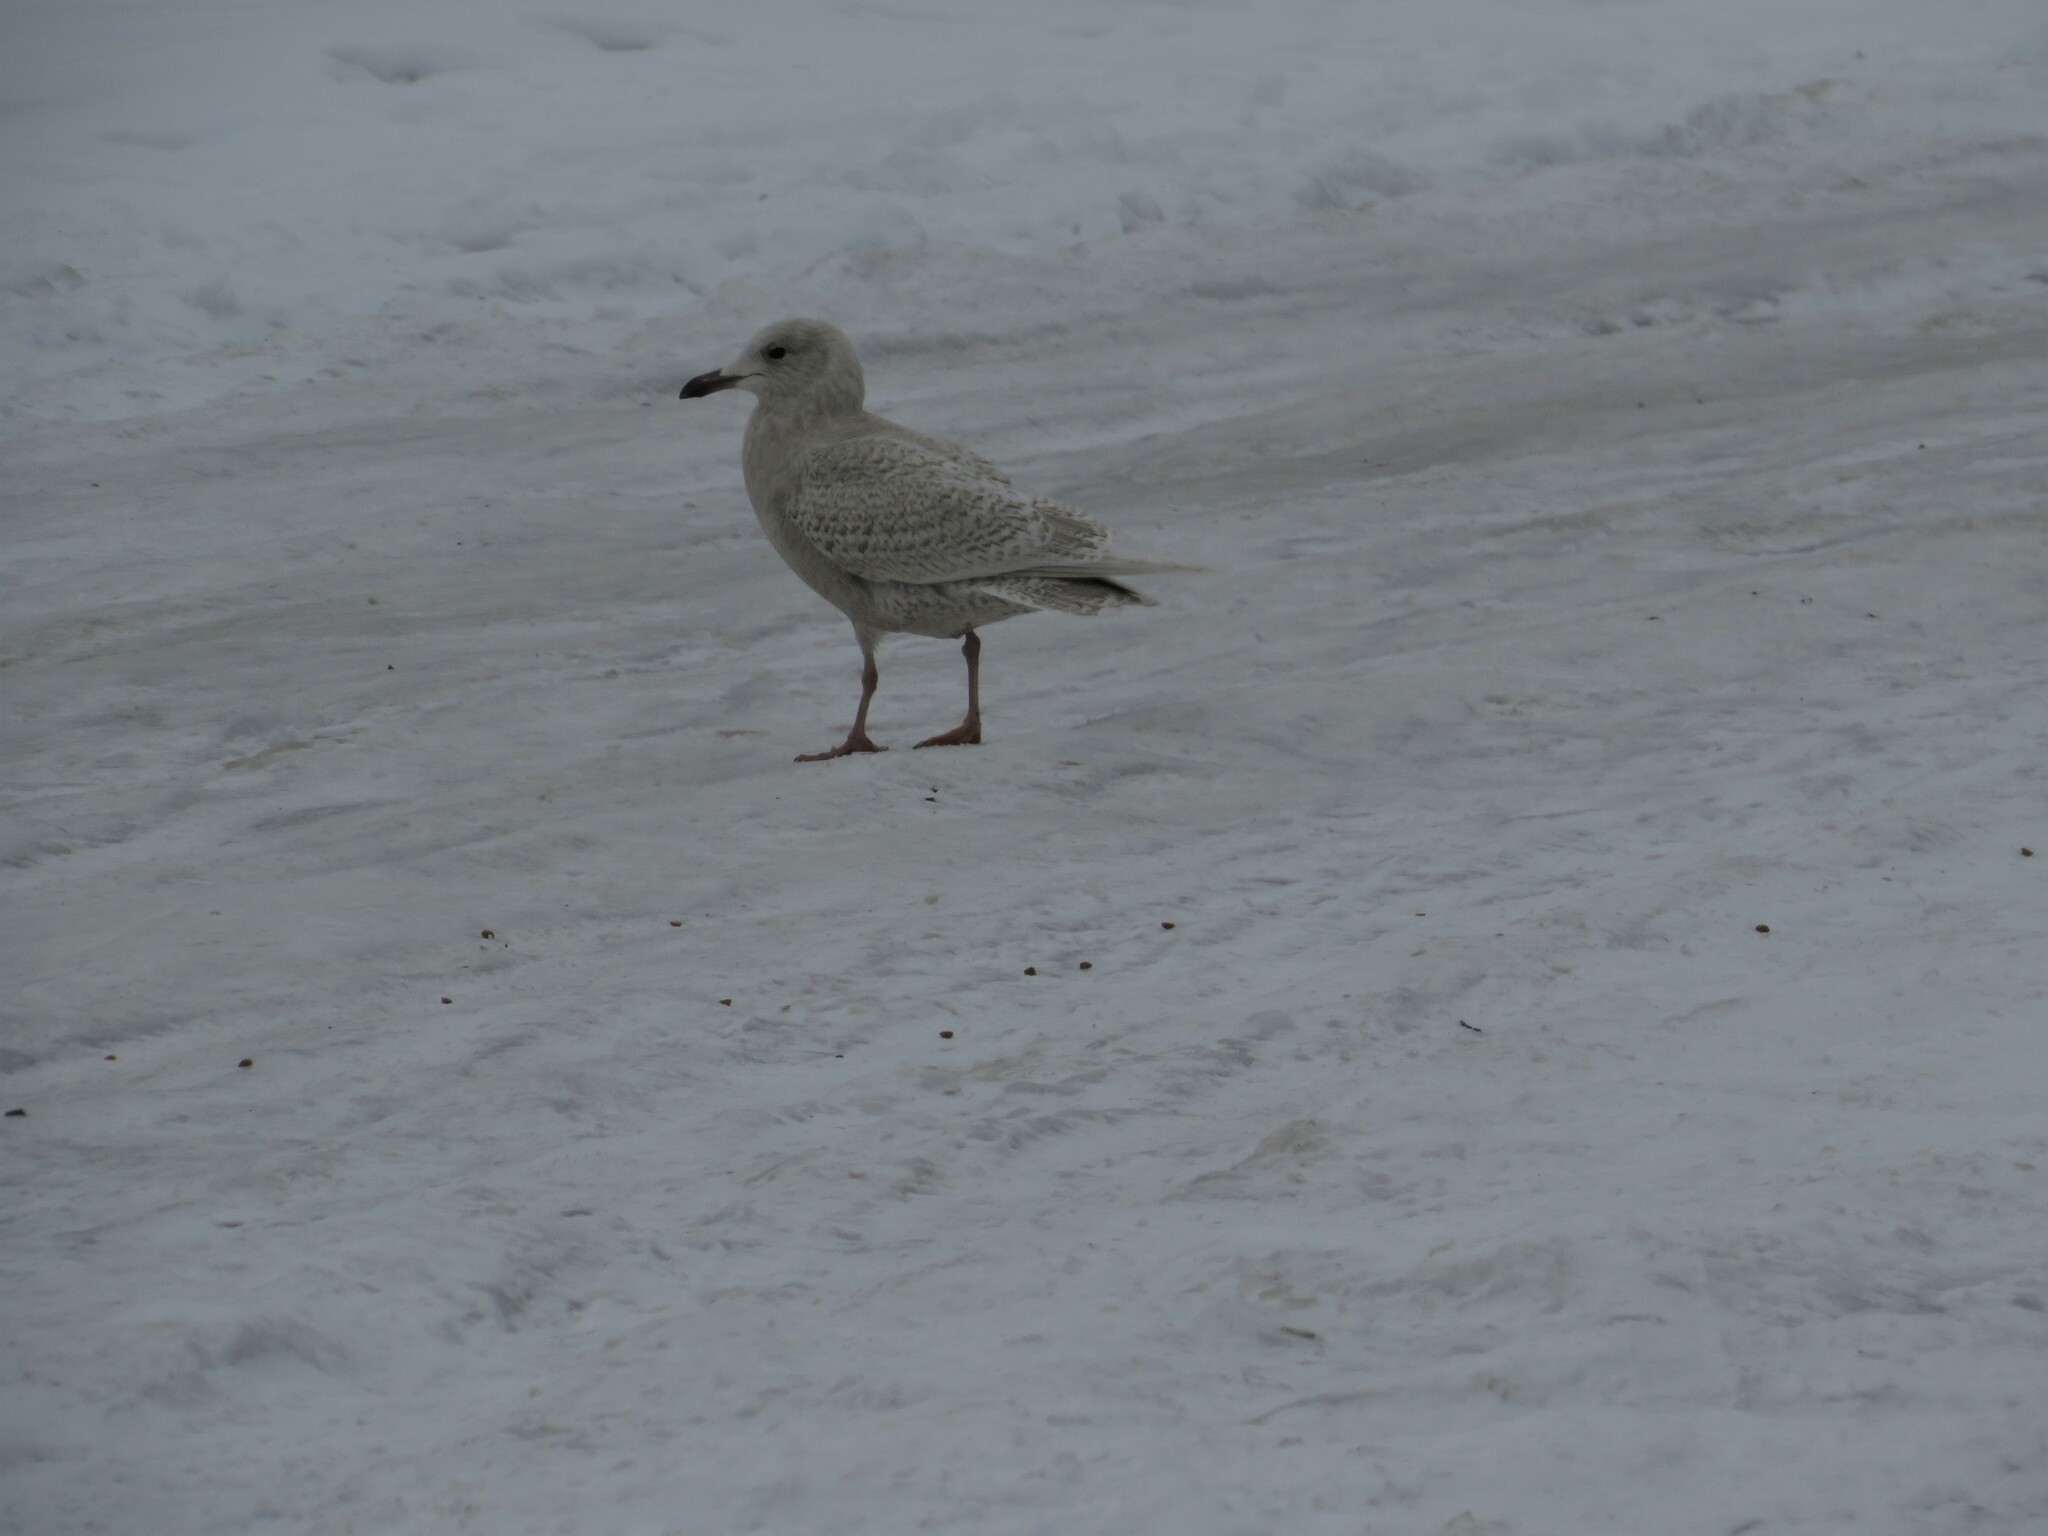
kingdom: Animalia
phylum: Chordata
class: Aves
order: Charadriiformes
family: Laridae
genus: Larus
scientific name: Larus glaucoides
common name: Iceland gull
